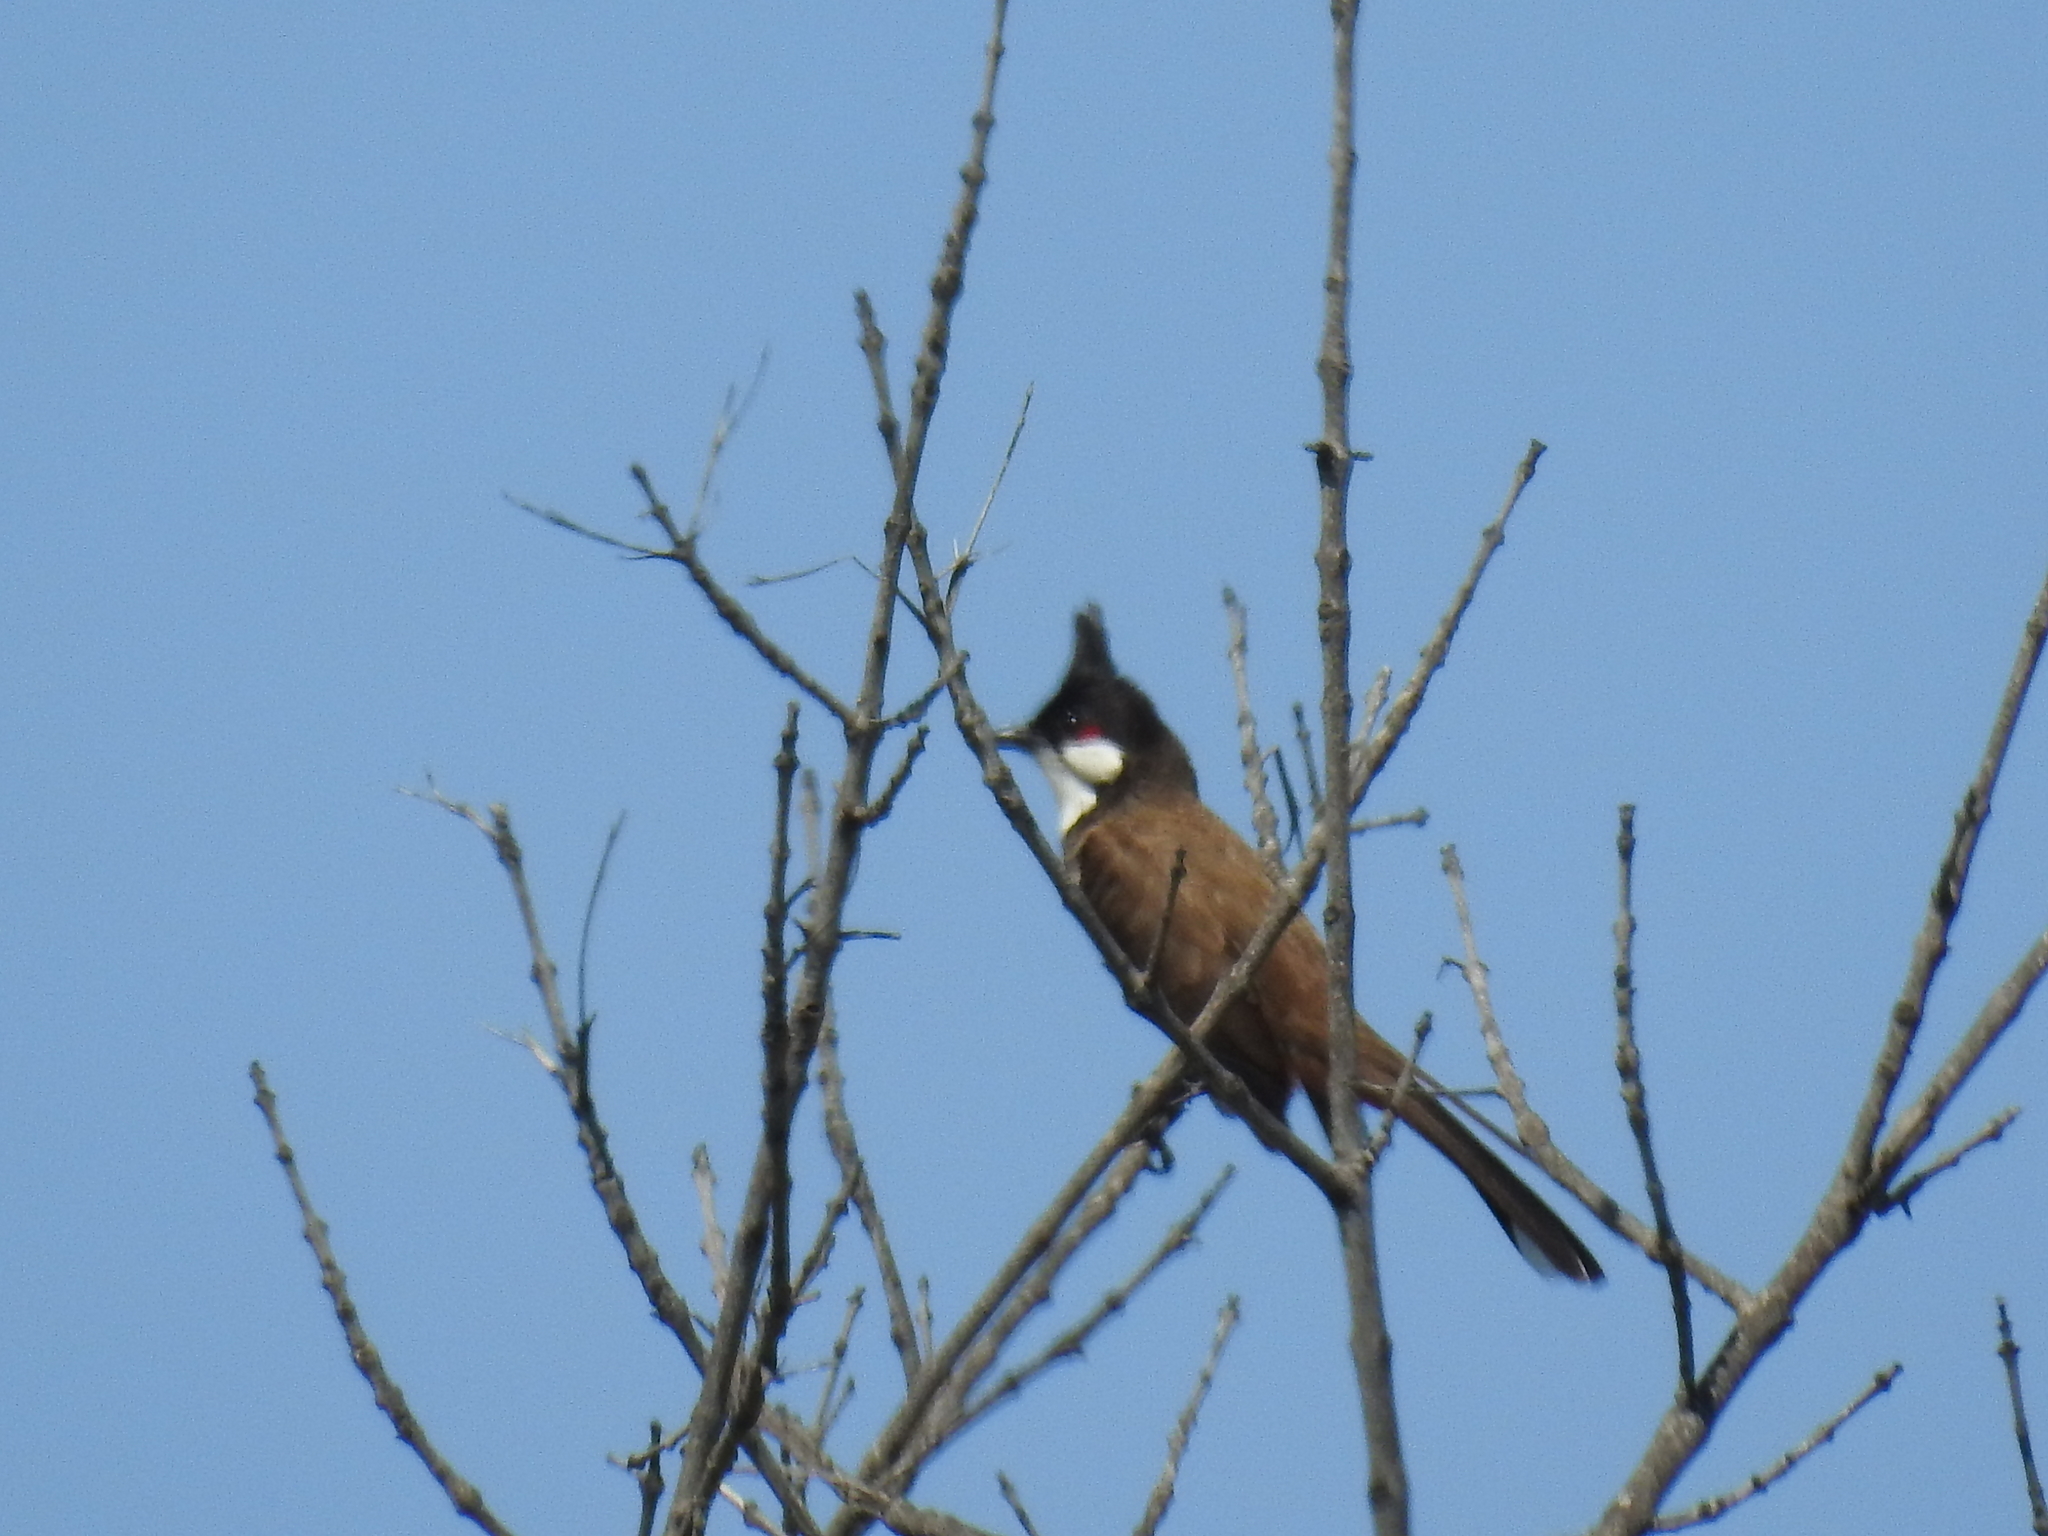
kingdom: Animalia
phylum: Chordata
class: Aves
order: Passeriformes
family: Pycnonotidae
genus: Pycnonotus
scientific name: Pycnonotus jocosus
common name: Red-whiskered bulbul
